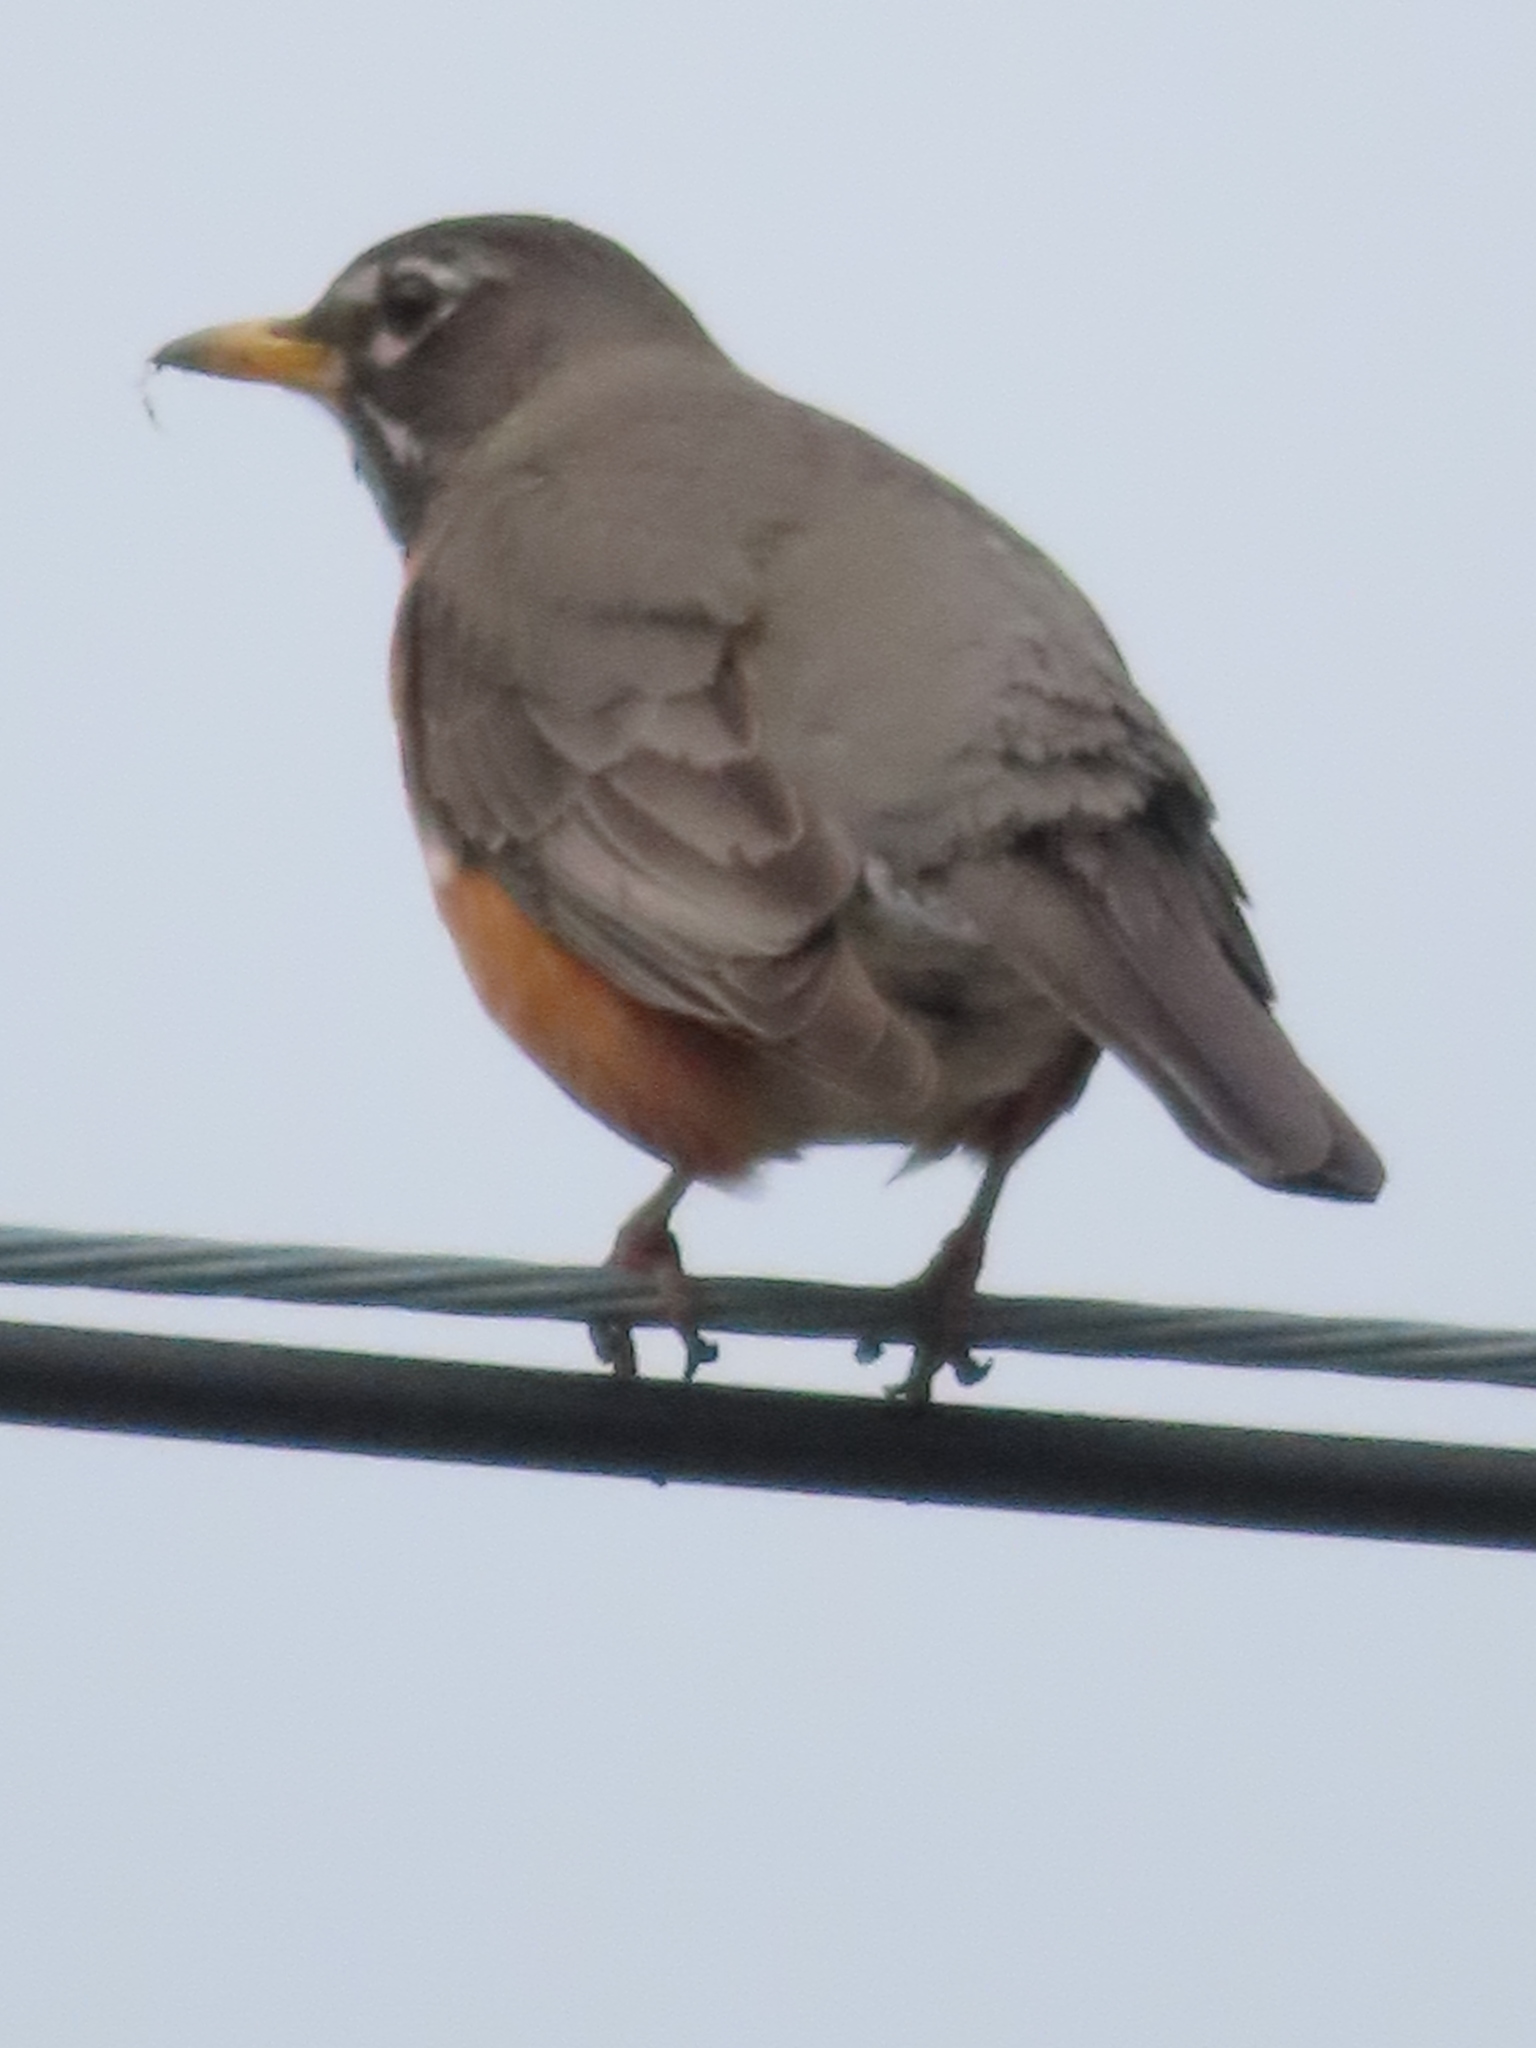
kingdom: Animalia
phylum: Chordata
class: Aves
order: Passeriformes
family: Turdidae
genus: Turdus
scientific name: Turdus migratorius
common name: American robin
